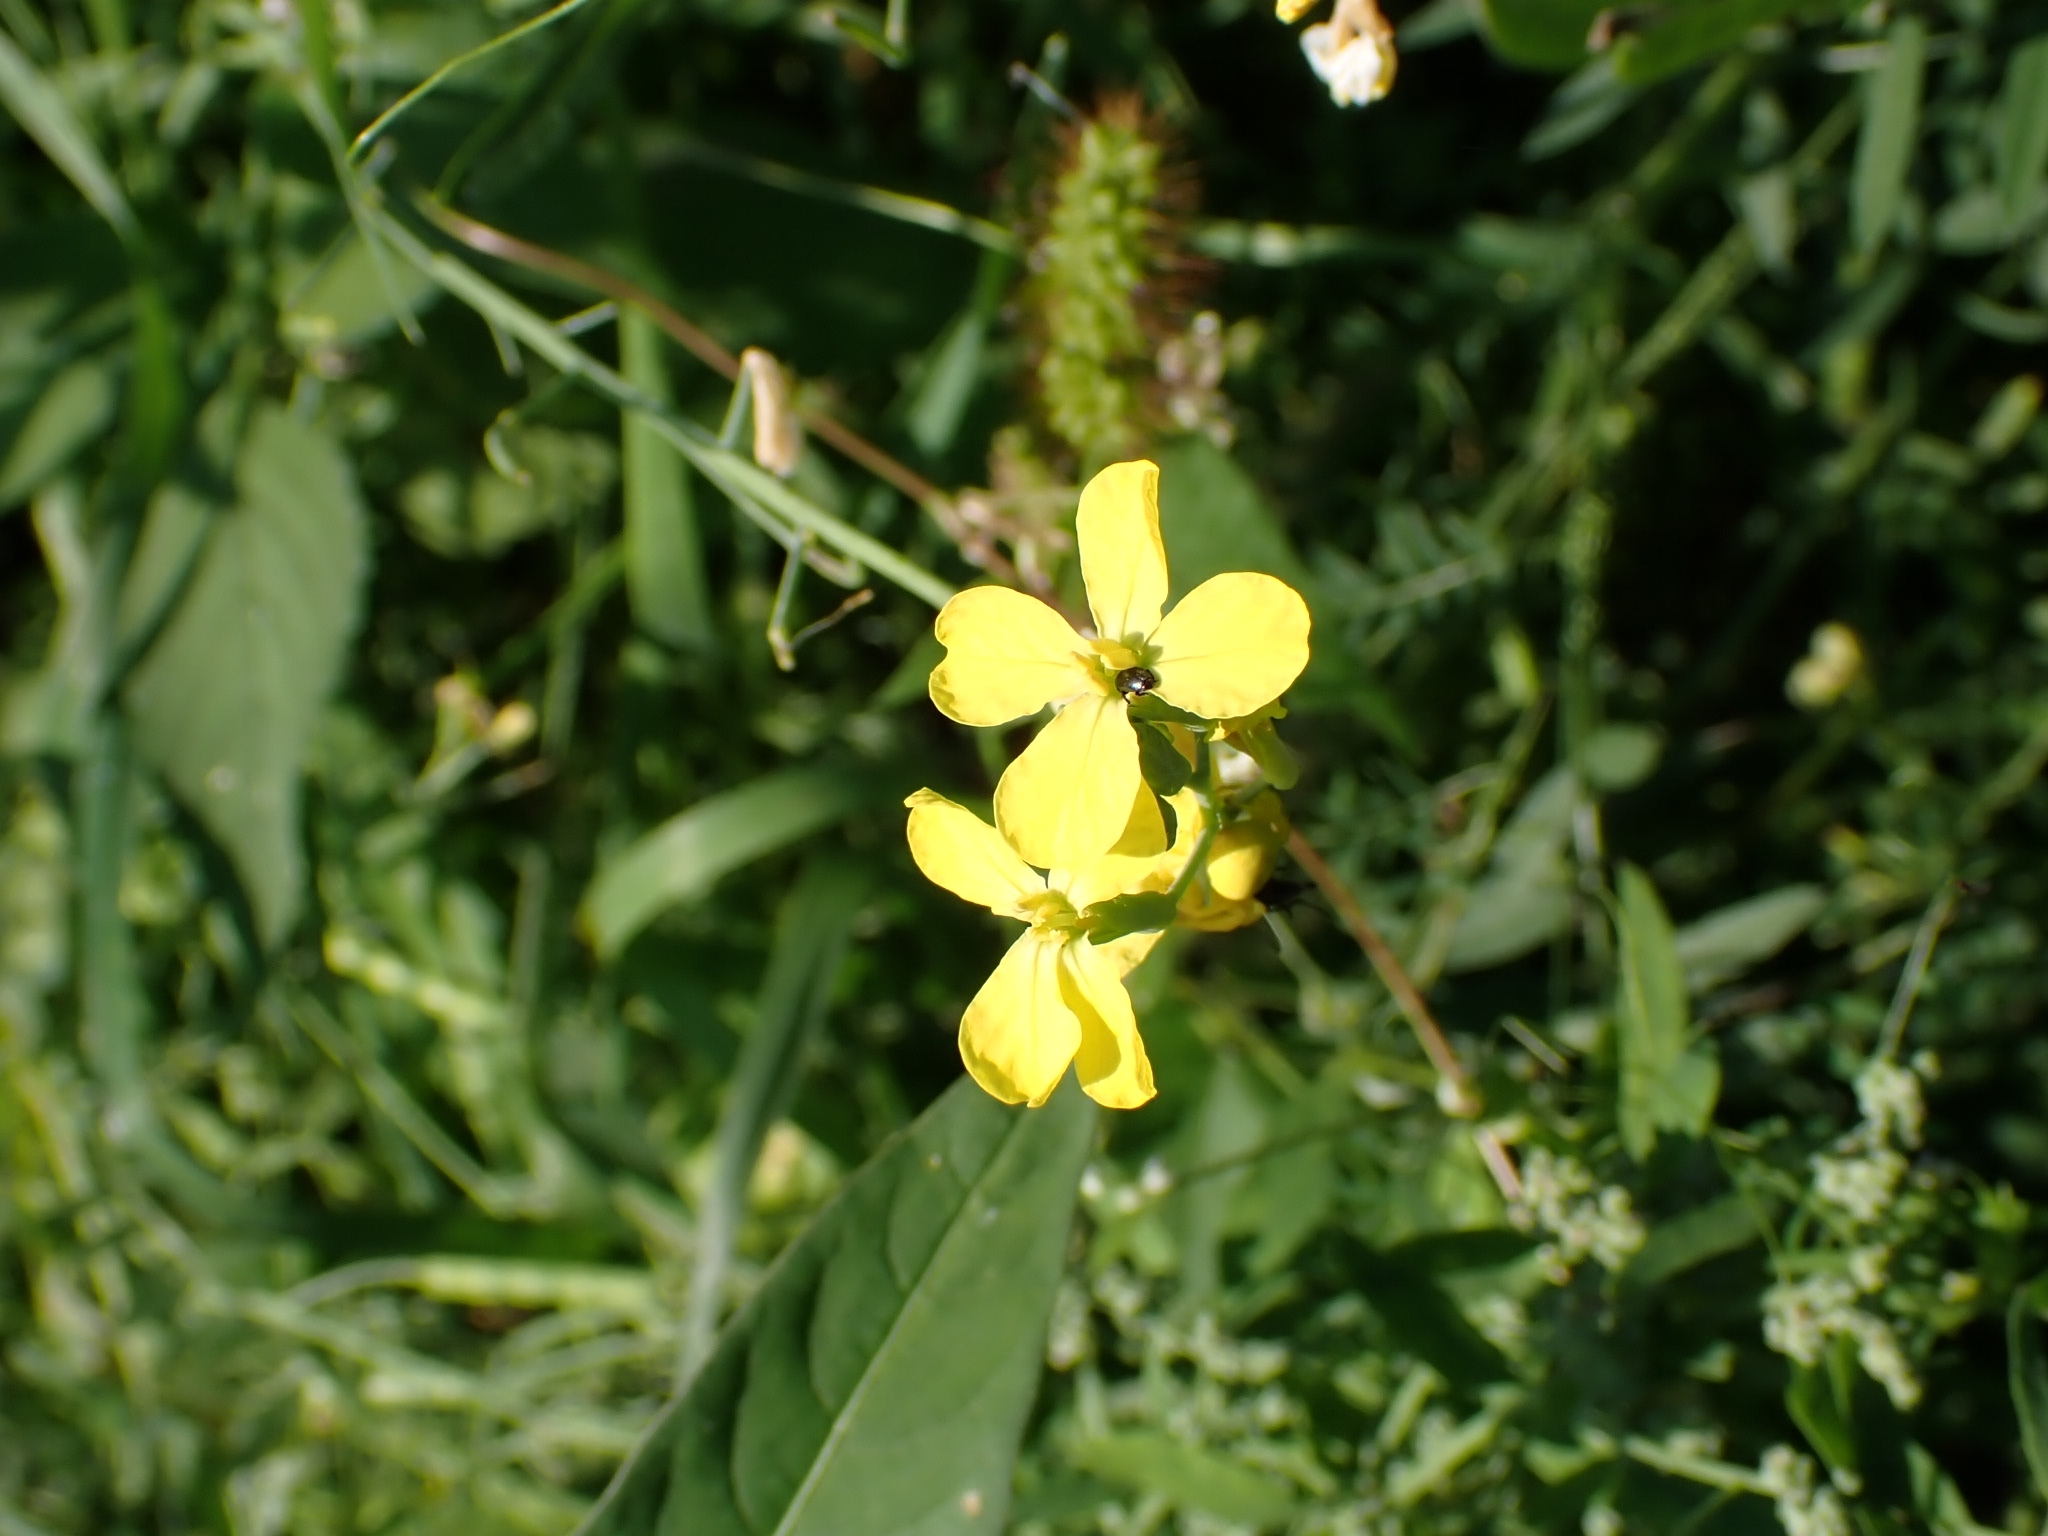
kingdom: Plantae
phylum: Tracheophyta
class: Magnoliopsida
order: Brassicales
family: Brassicaceae
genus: Raphanus
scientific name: Raphanus raphanistrum
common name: Wild radish
